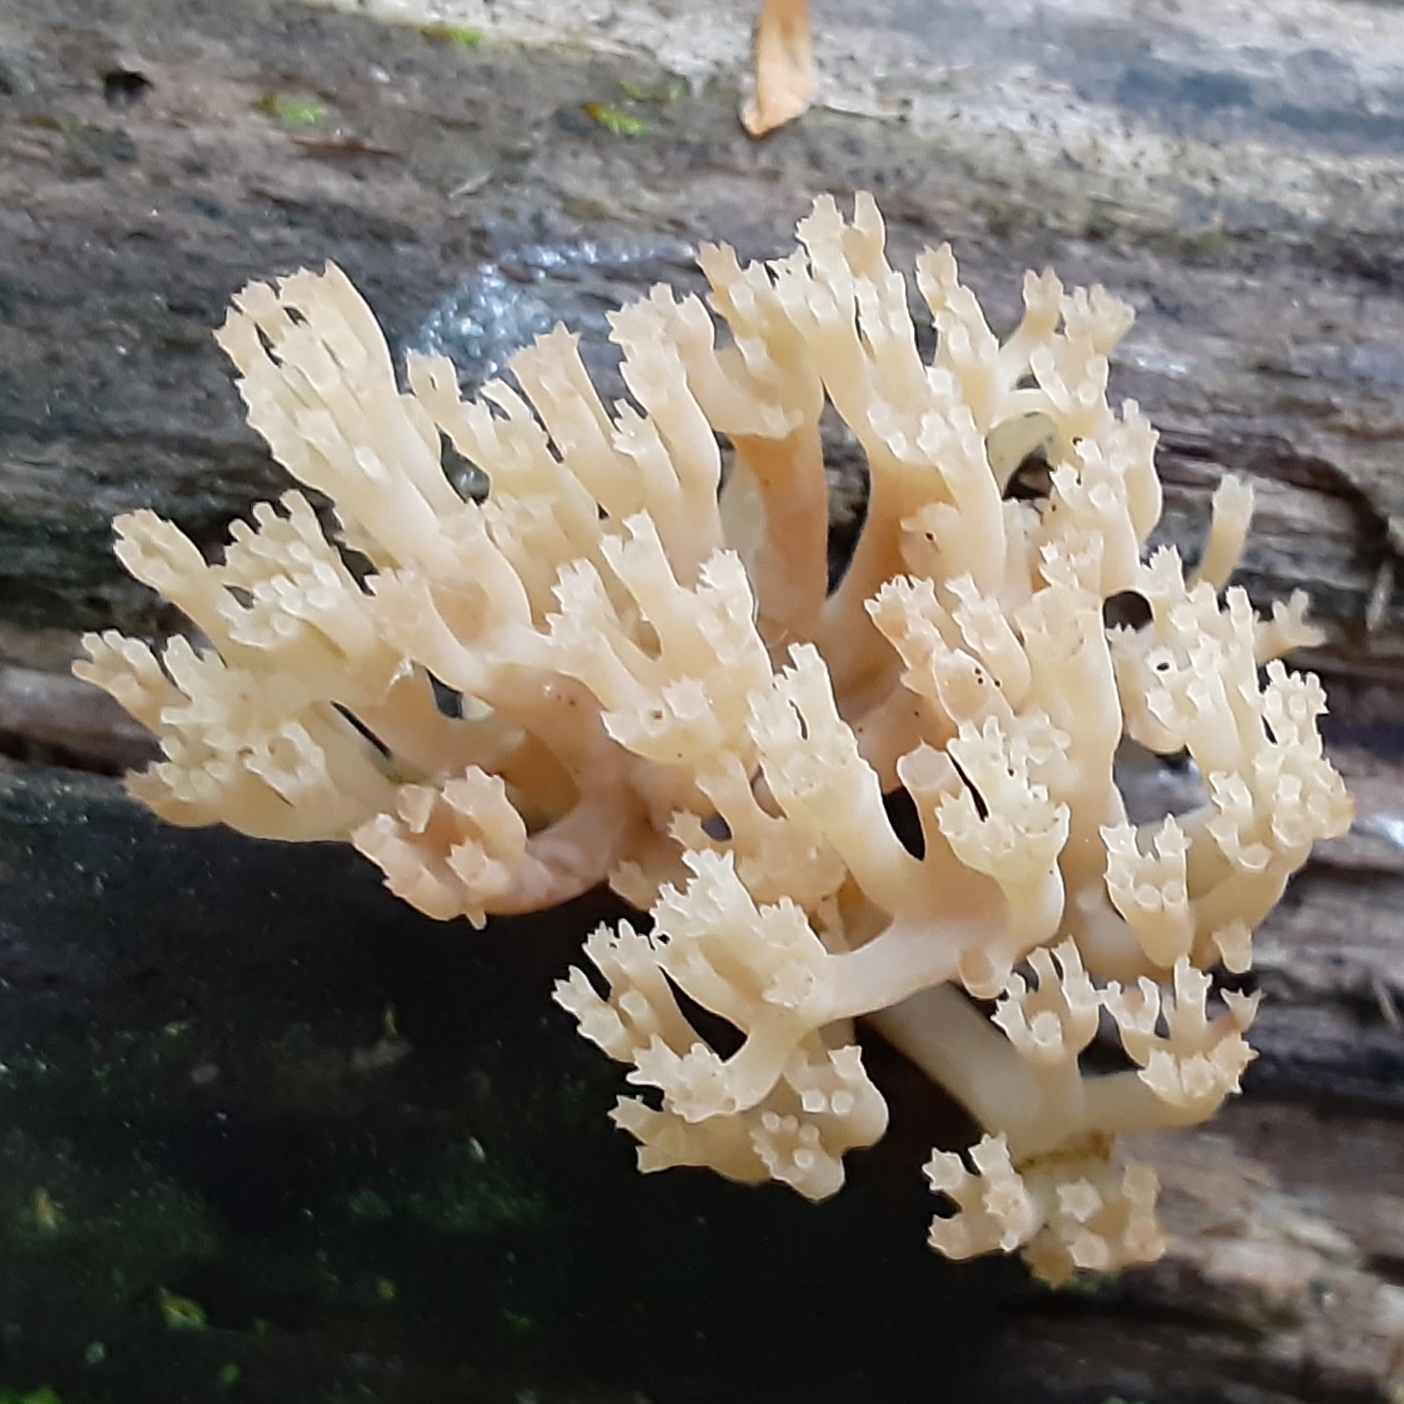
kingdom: Fungi
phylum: Basidiomycota
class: Agaricomycetes
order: Russulales
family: Auriscalpiaceae
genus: Artomyces
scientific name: Artomyces pyxidatus
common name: Crown-tipped coral fungus
